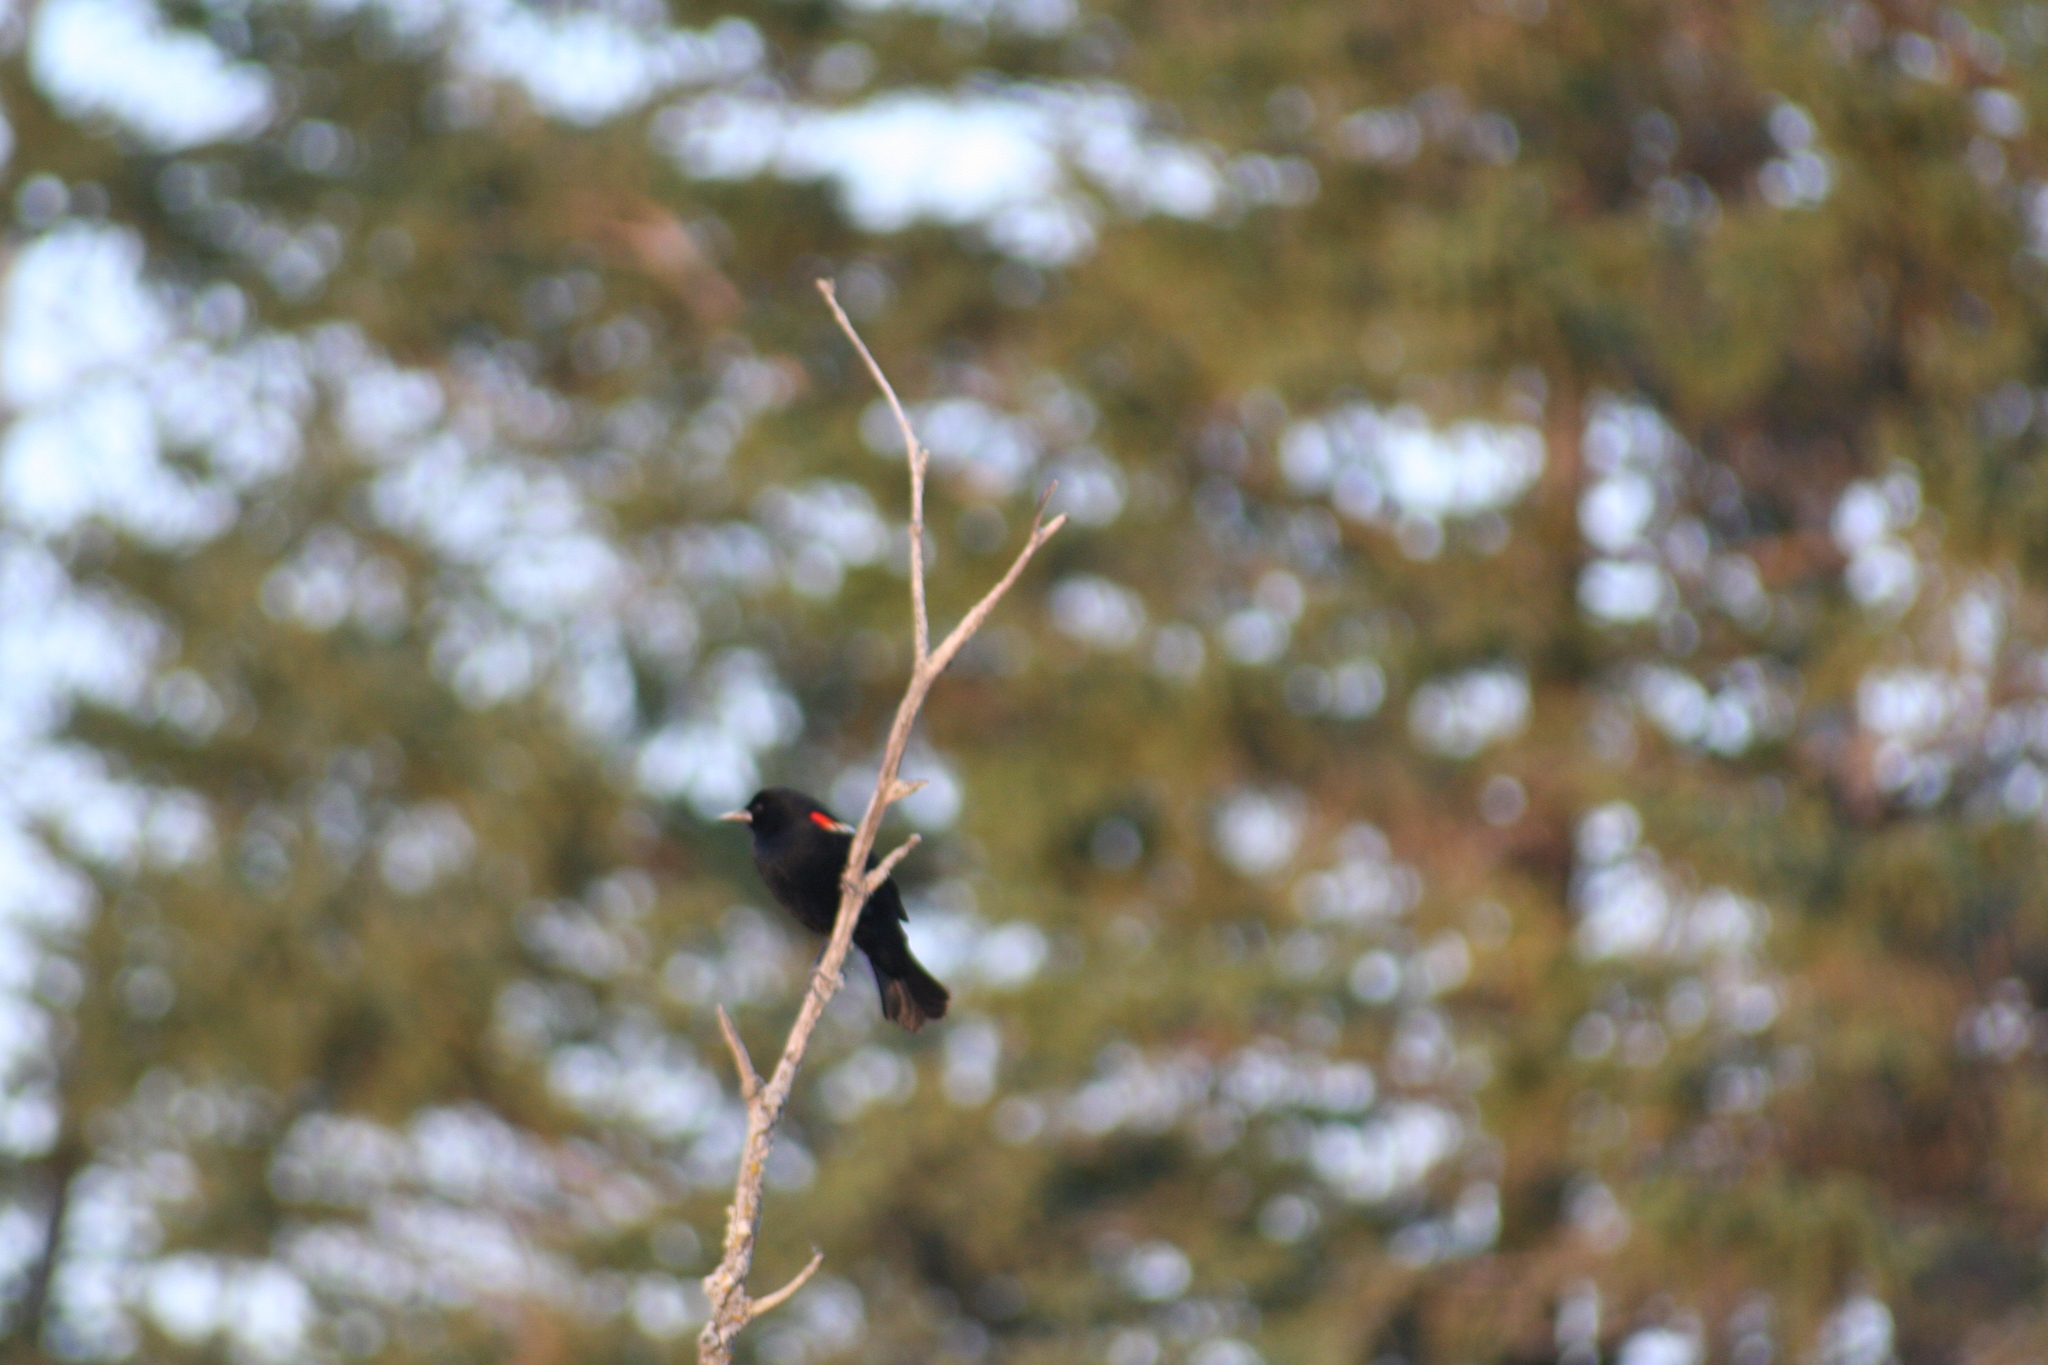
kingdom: Animalia
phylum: Chordata
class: Aves
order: Passeriformes
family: Icteridae
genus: Agelaius
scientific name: Agelaius phoeniceus
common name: Red-winged blackbird
